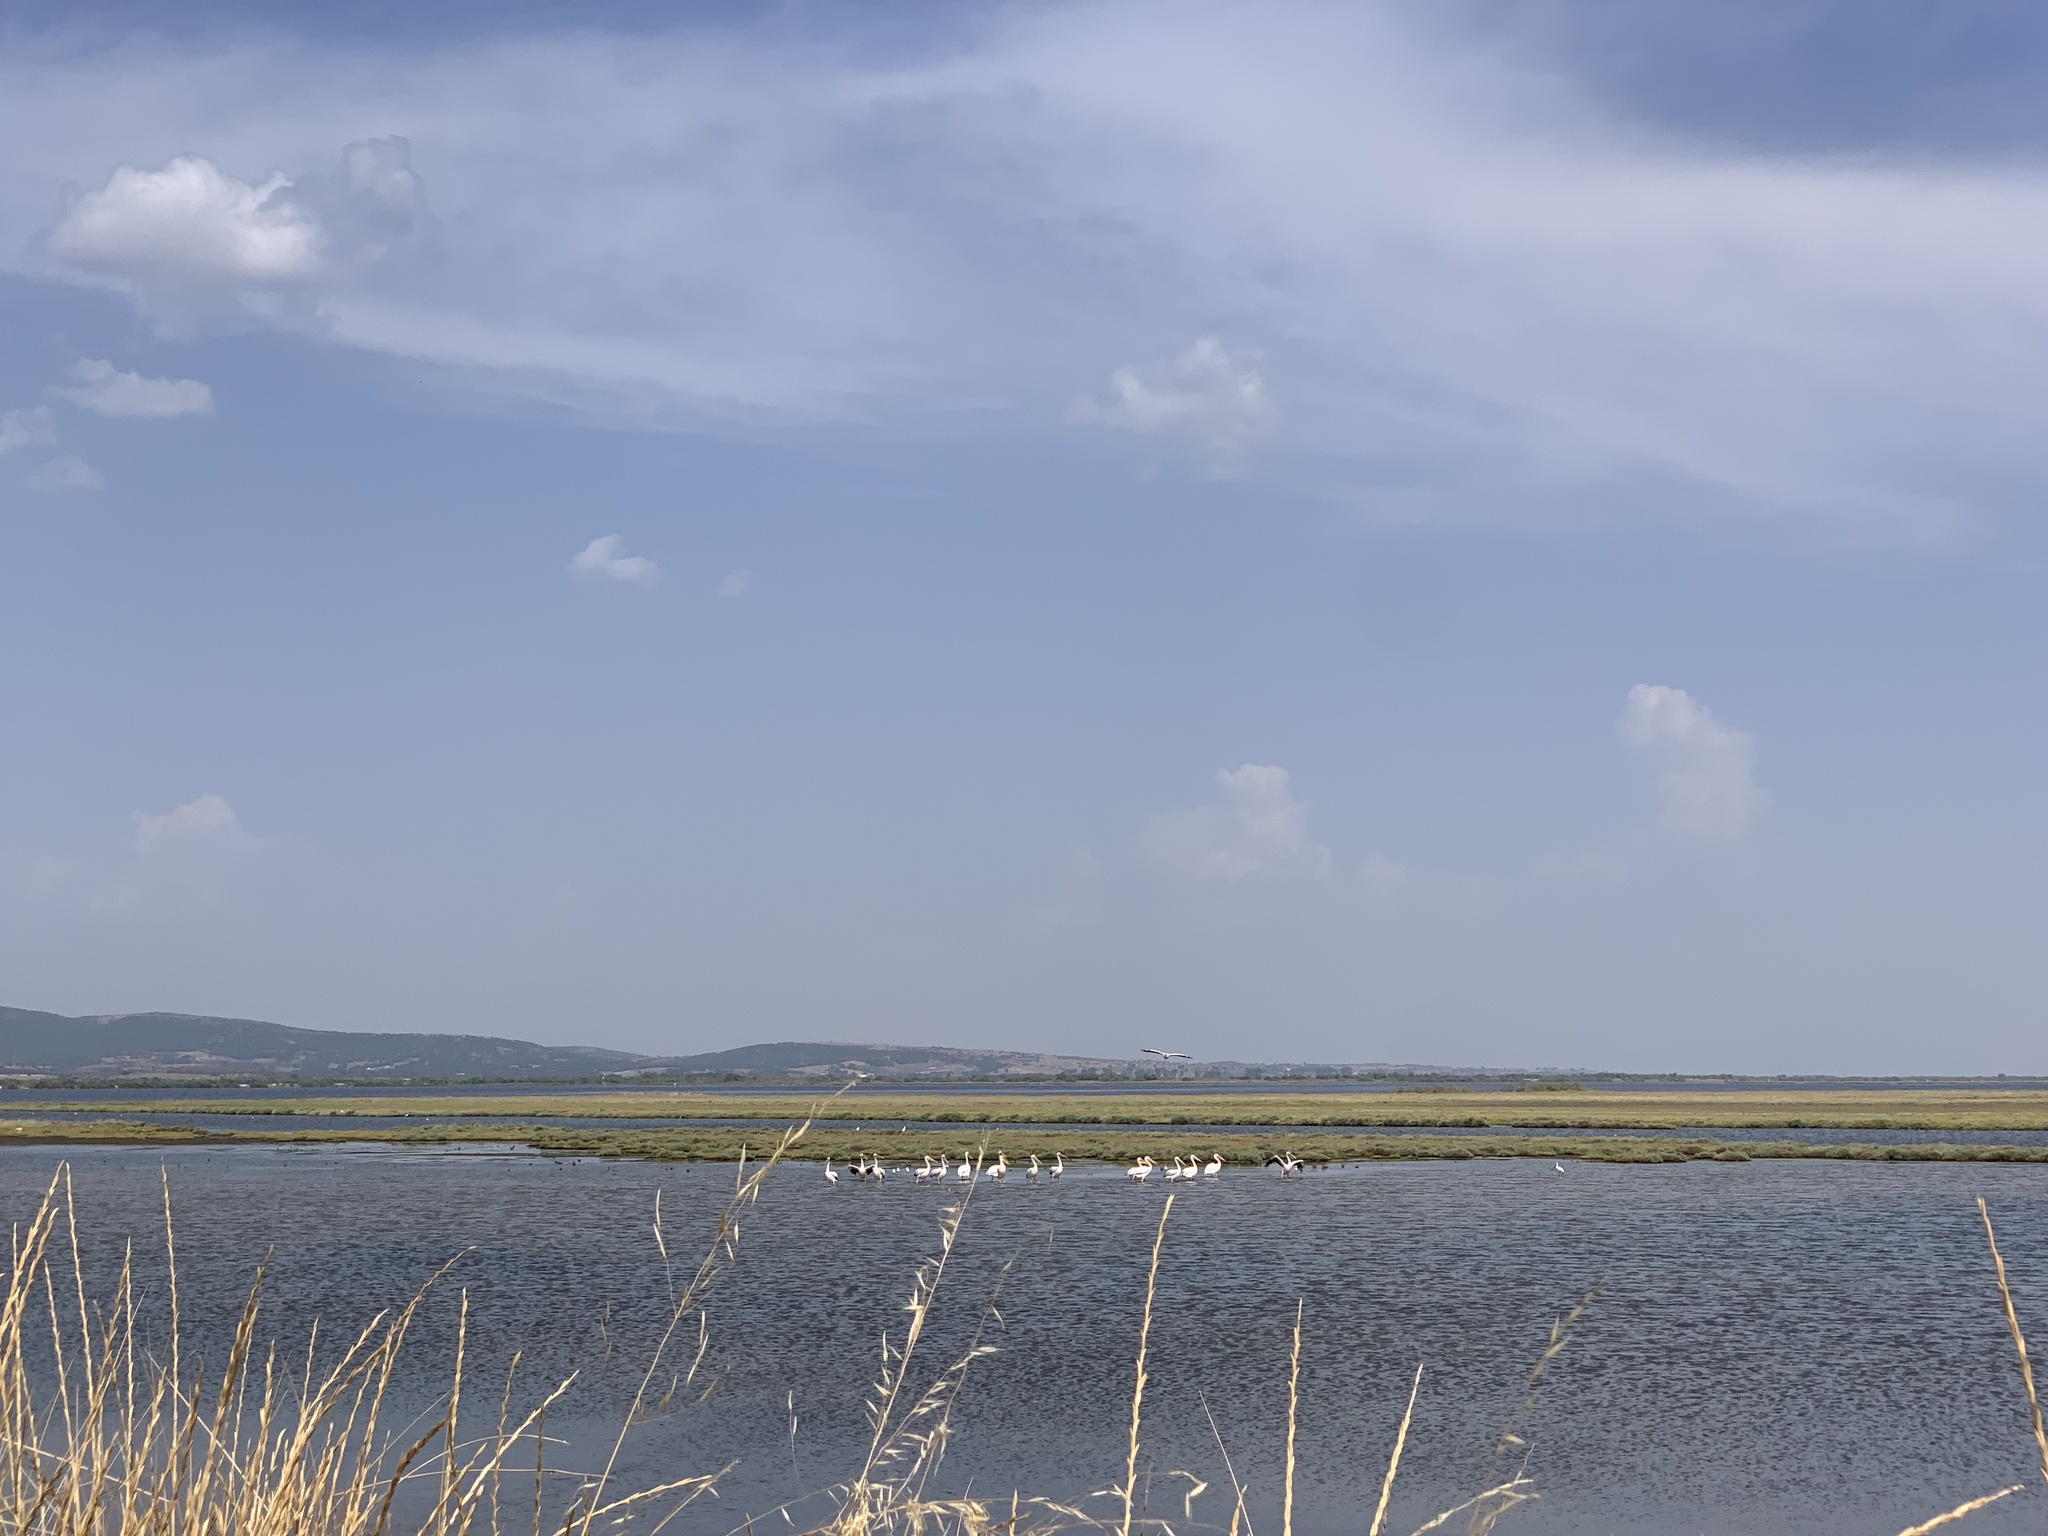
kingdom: Animalia
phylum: Chordata
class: Aves
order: Pelecaniformes
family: Pelecanidae
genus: Pelecanus
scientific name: Pelecanus onocrotalus
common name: Great white pelican
